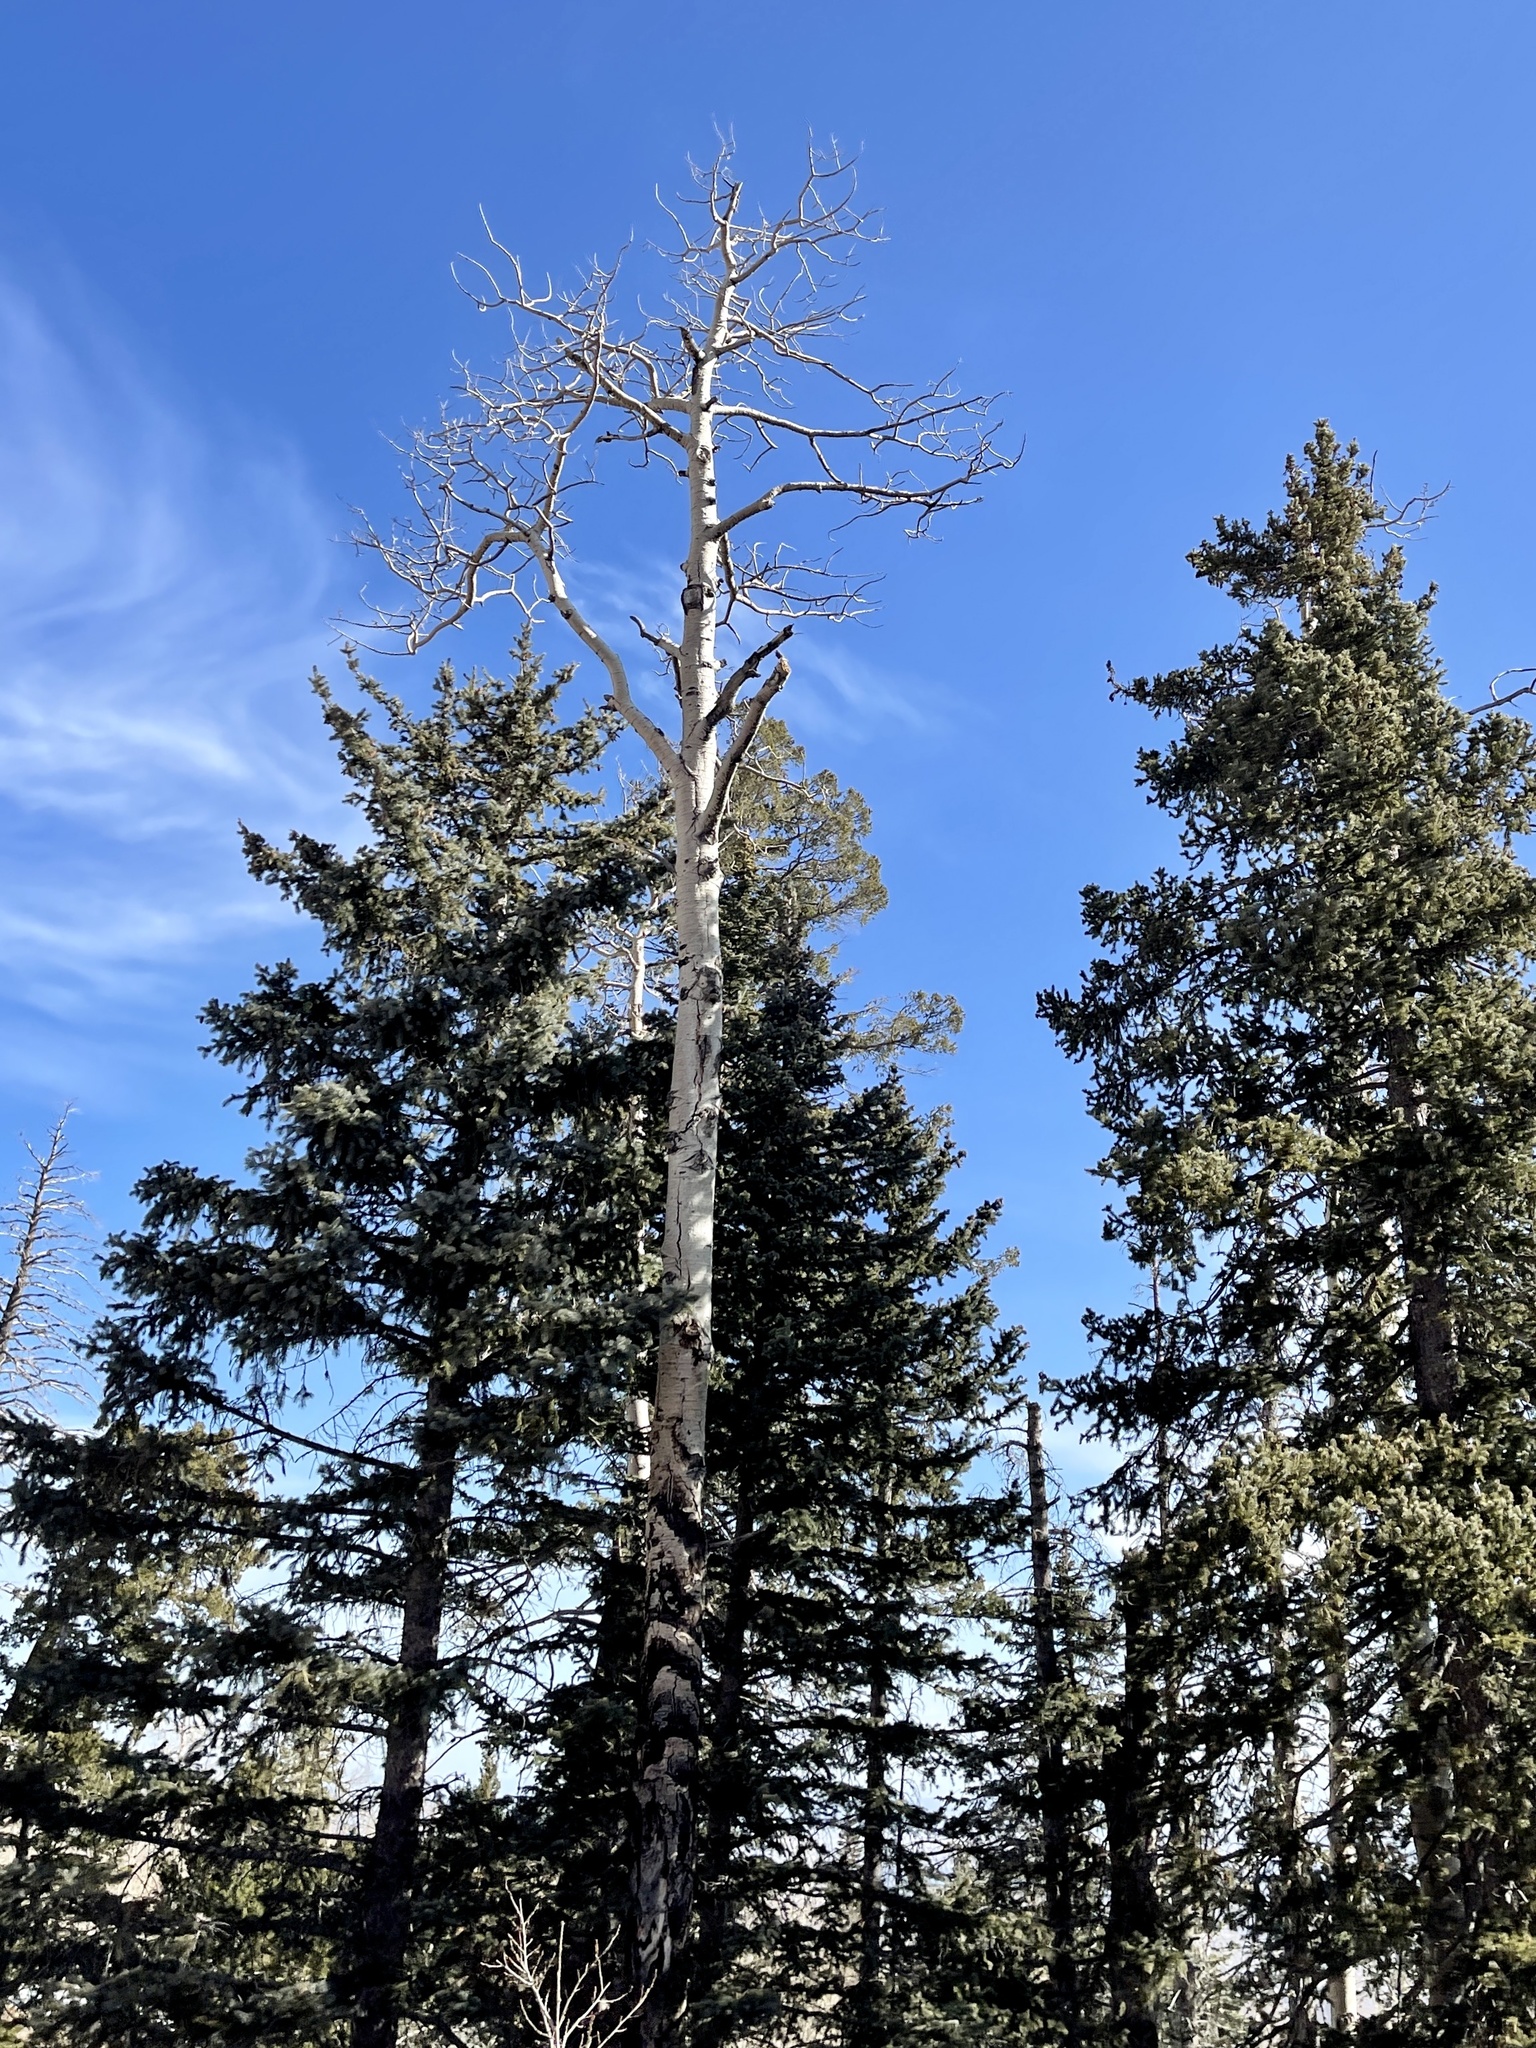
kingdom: Plantae
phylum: Tracheophyta
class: Magnoliopsida
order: Malpighiales
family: Salicaceae
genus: Populus
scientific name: Populus tremuloides
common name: Quaking aspen
